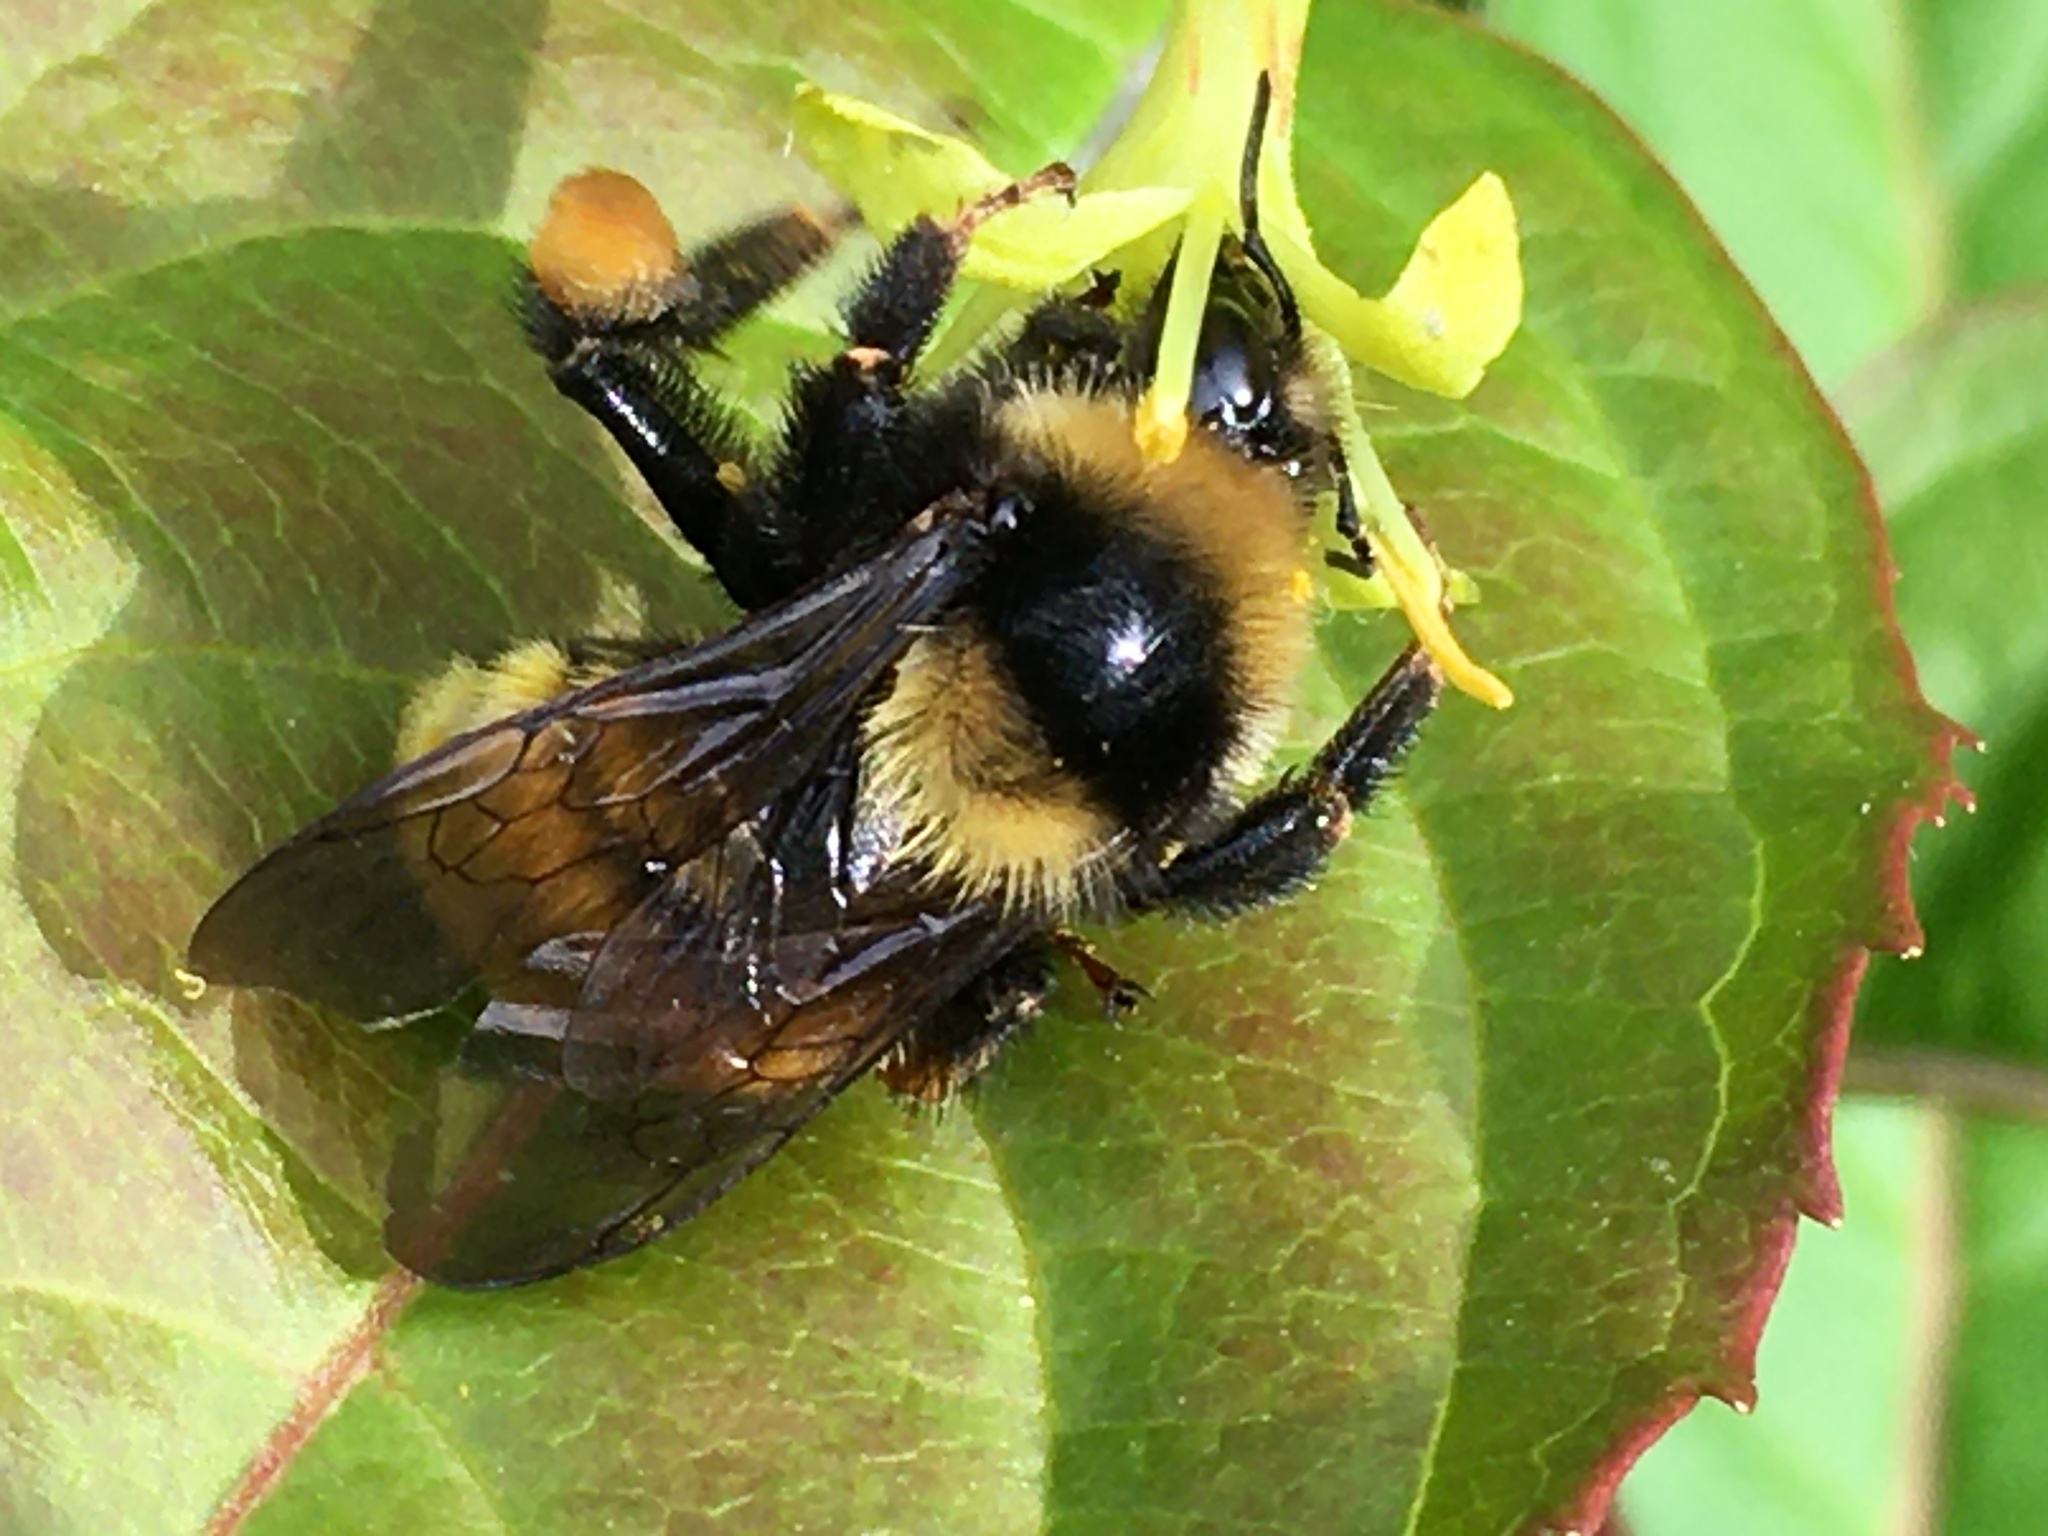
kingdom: Animalia
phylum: Arthropoda
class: Insecta
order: Hymenoptera
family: Apidae
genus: Bombus
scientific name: Bombus borealis
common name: Northern amber bumble bee
